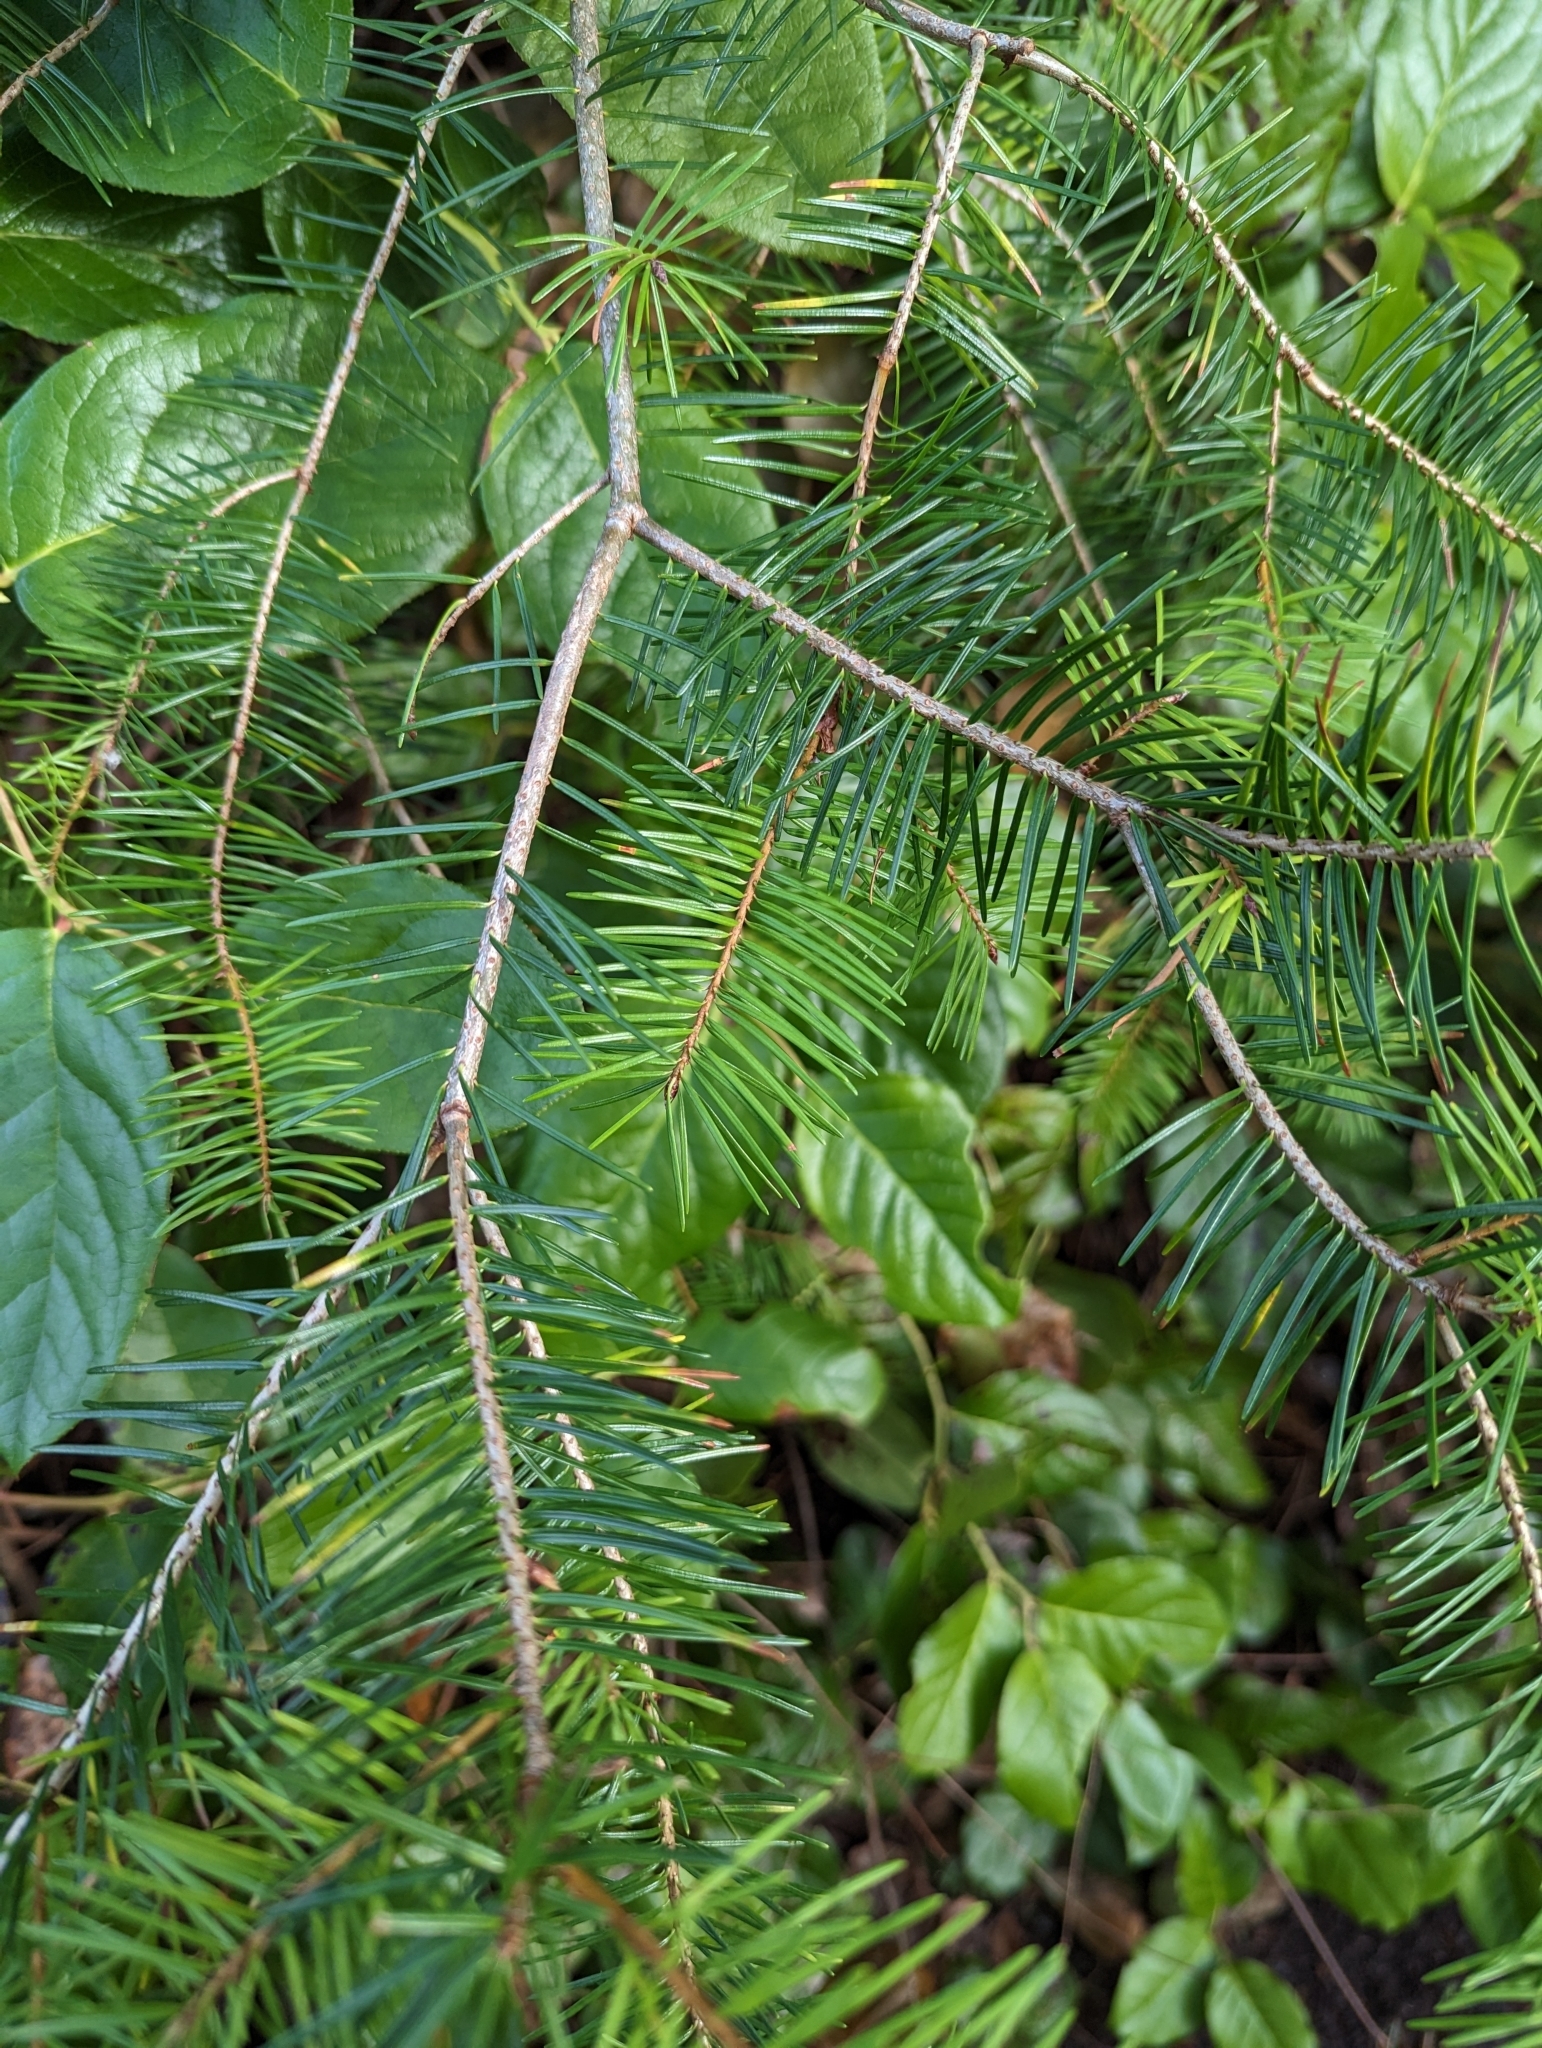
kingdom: Plantae
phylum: Tracheophyta
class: Pinopsida
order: Pinales
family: Pinaceae
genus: Pseudotsuga
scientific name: Pseudotsuga menziesii
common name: Douglas fir
